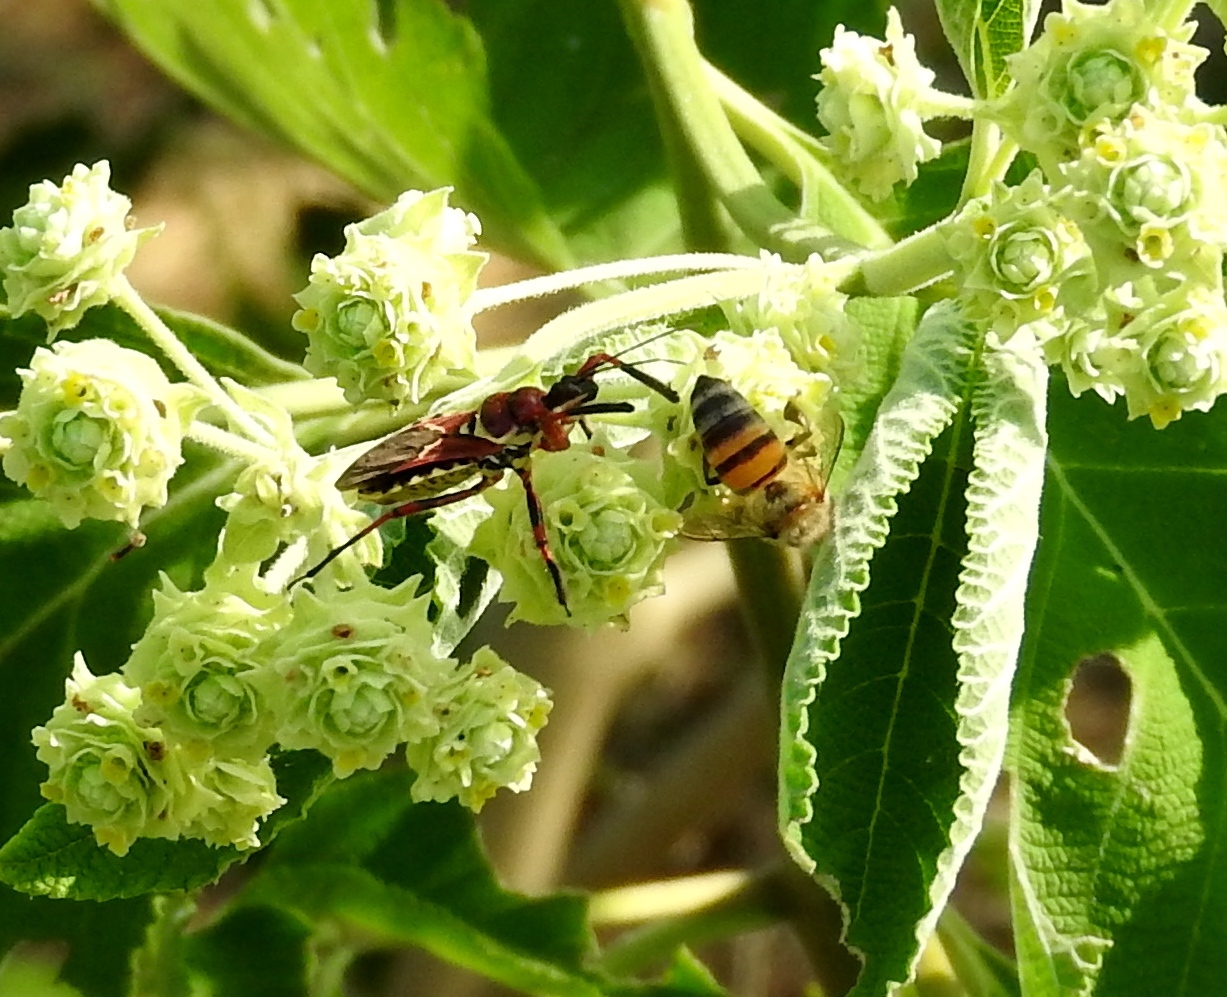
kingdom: Animalia
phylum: Arthropoda
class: Insecta
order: Hymenoptera
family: Apidae
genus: Apis
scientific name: Apis mellifera
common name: Honey bee
